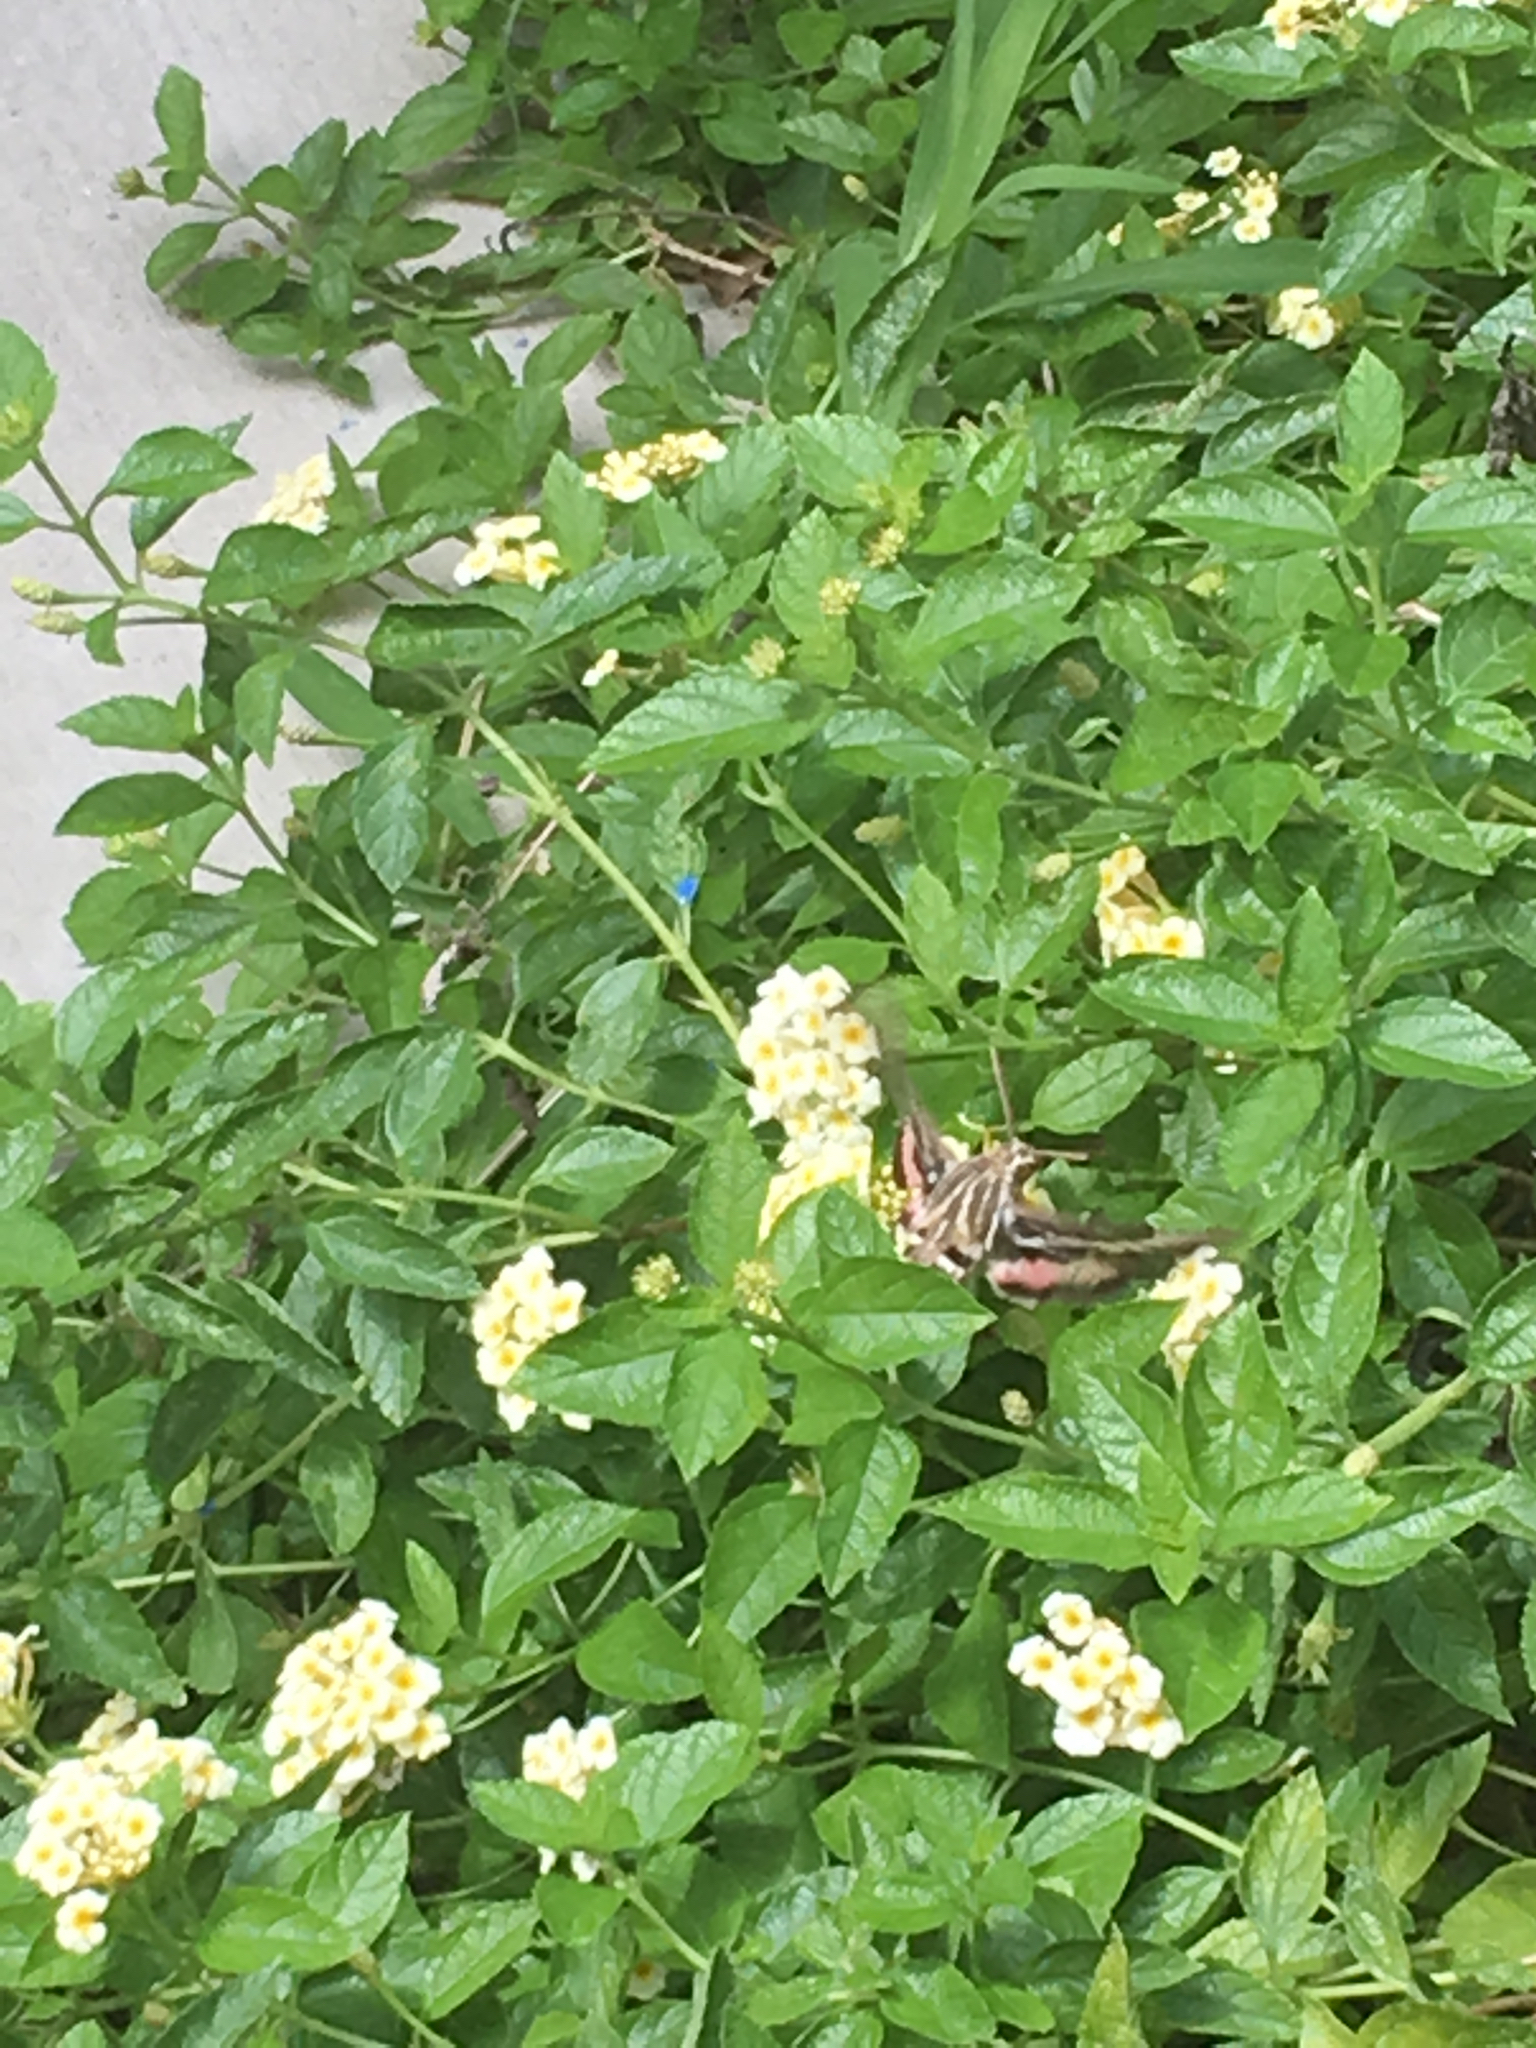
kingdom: Animalia
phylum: Arthropoda
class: Insecta
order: Lepidoptera
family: Sphingidae
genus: Hyles
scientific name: Hyles lineata
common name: White-lined sphinx
